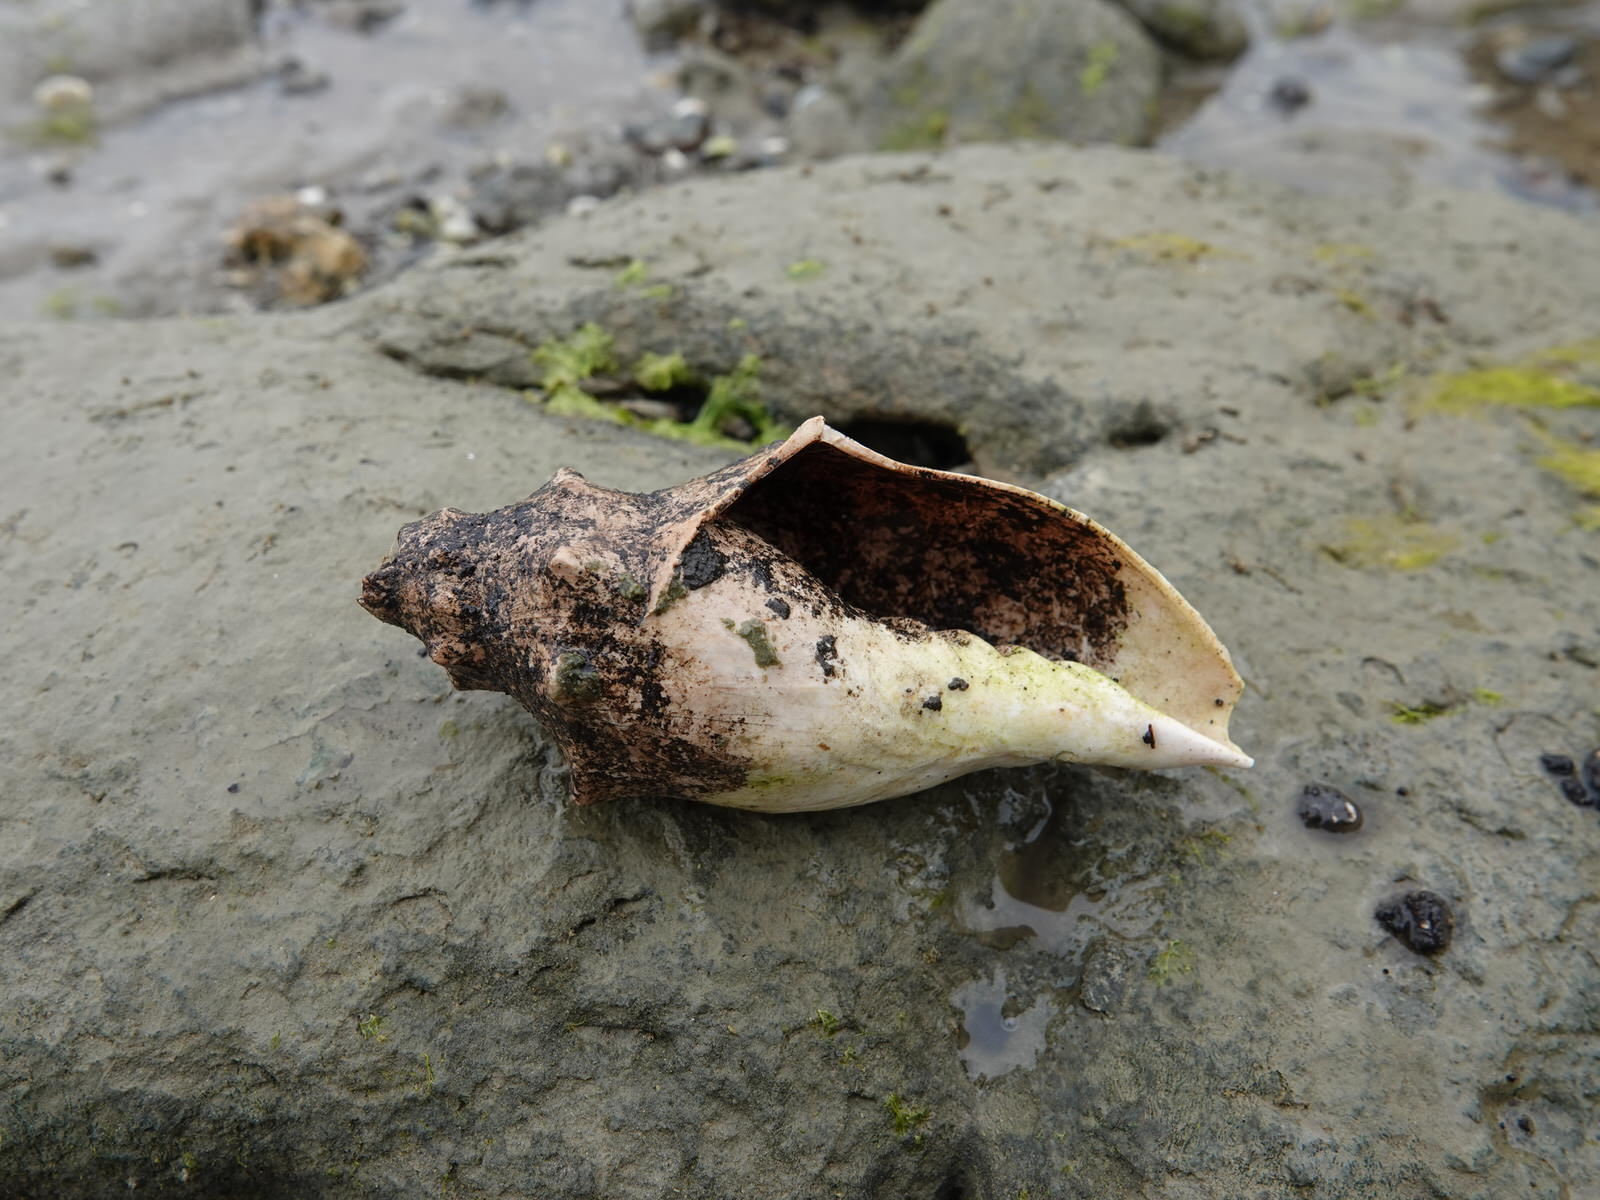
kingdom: Animalia
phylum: Mollusca
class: Gastropoda
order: Neogastropoda
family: Volutidae
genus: Alcithoe
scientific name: Alcithoe arabica
